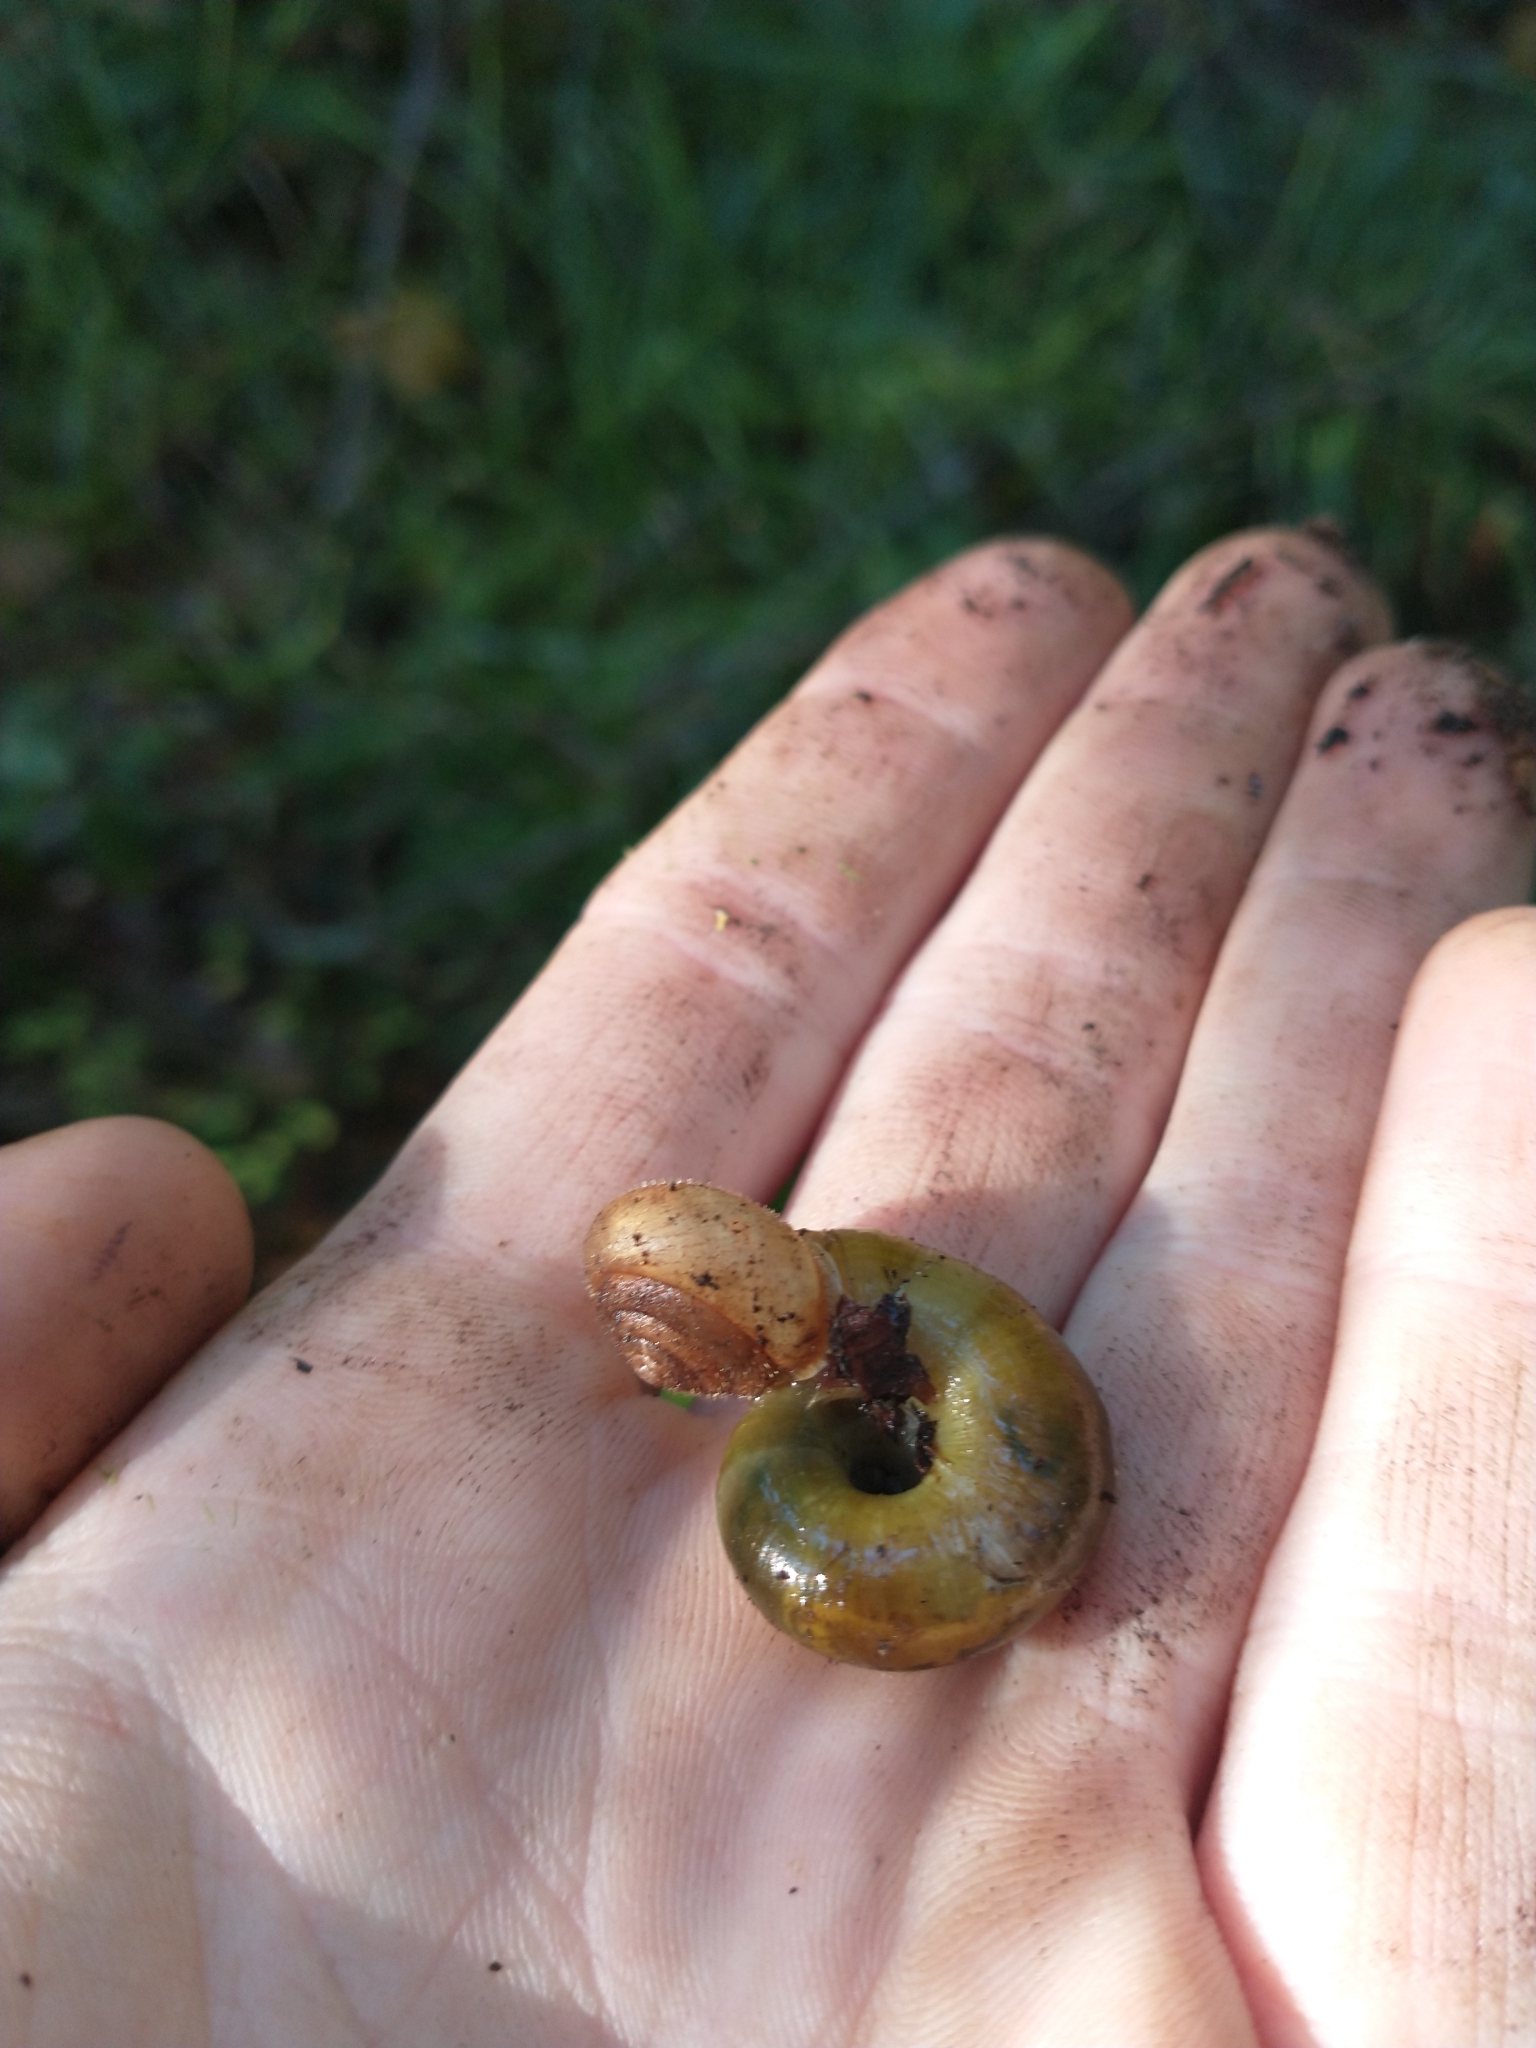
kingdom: Animalia
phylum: Mollusca
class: Gastropoda
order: Stylommatophora
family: Haplotrematidae
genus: Haplotrema
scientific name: Haplotrema vancouverense
